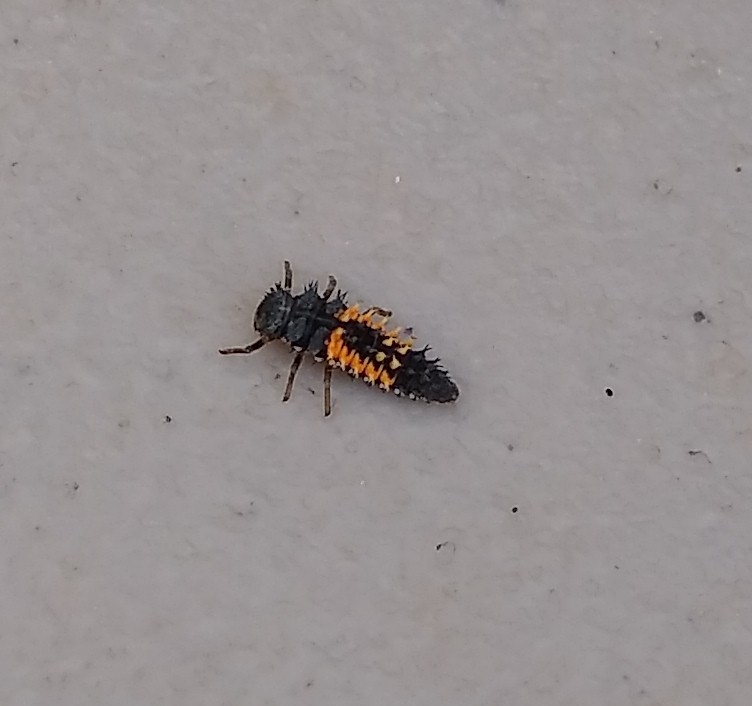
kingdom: Animalia
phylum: Arthropoda
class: Insecta
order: Coleoptera
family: Coccinellidae
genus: Harmonia
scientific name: Harmonia axyridis
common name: Harlequin ladybird
